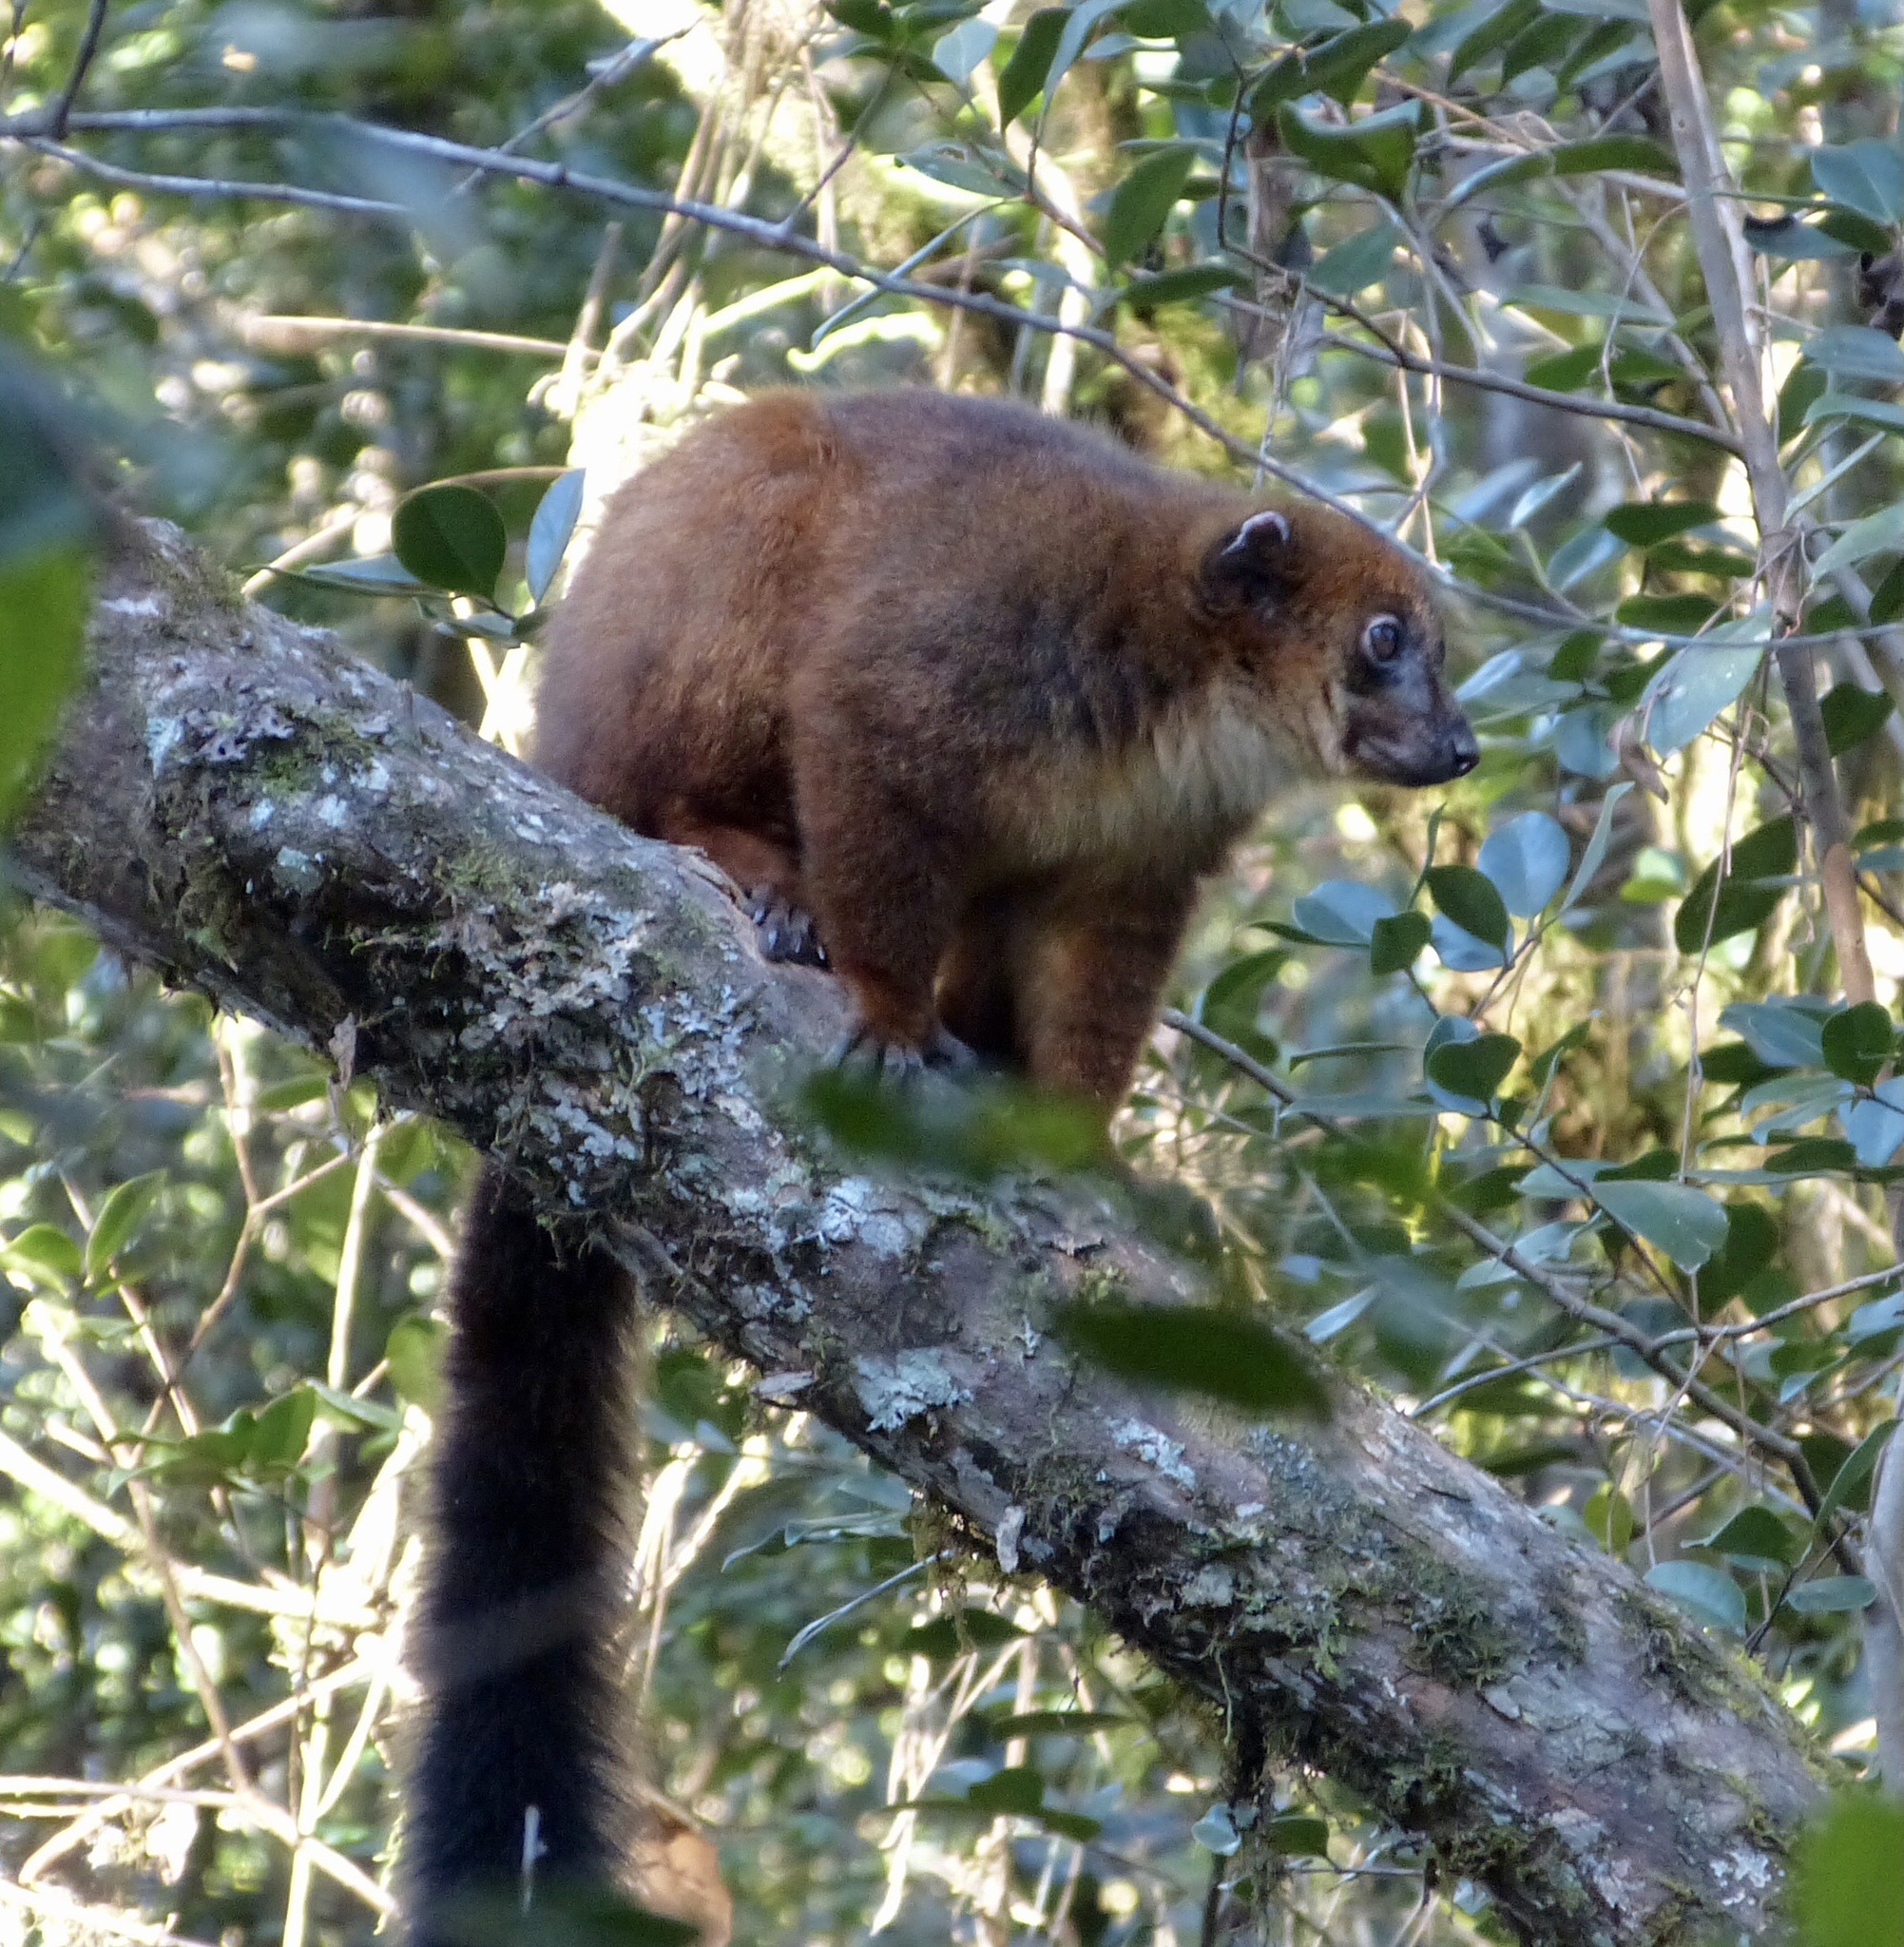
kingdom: Animalia
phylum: Chordata
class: Mammalia
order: Primates
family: Lemuridae
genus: Eulemur
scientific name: Eulemur rubriventer
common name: Red-bellied lemur
